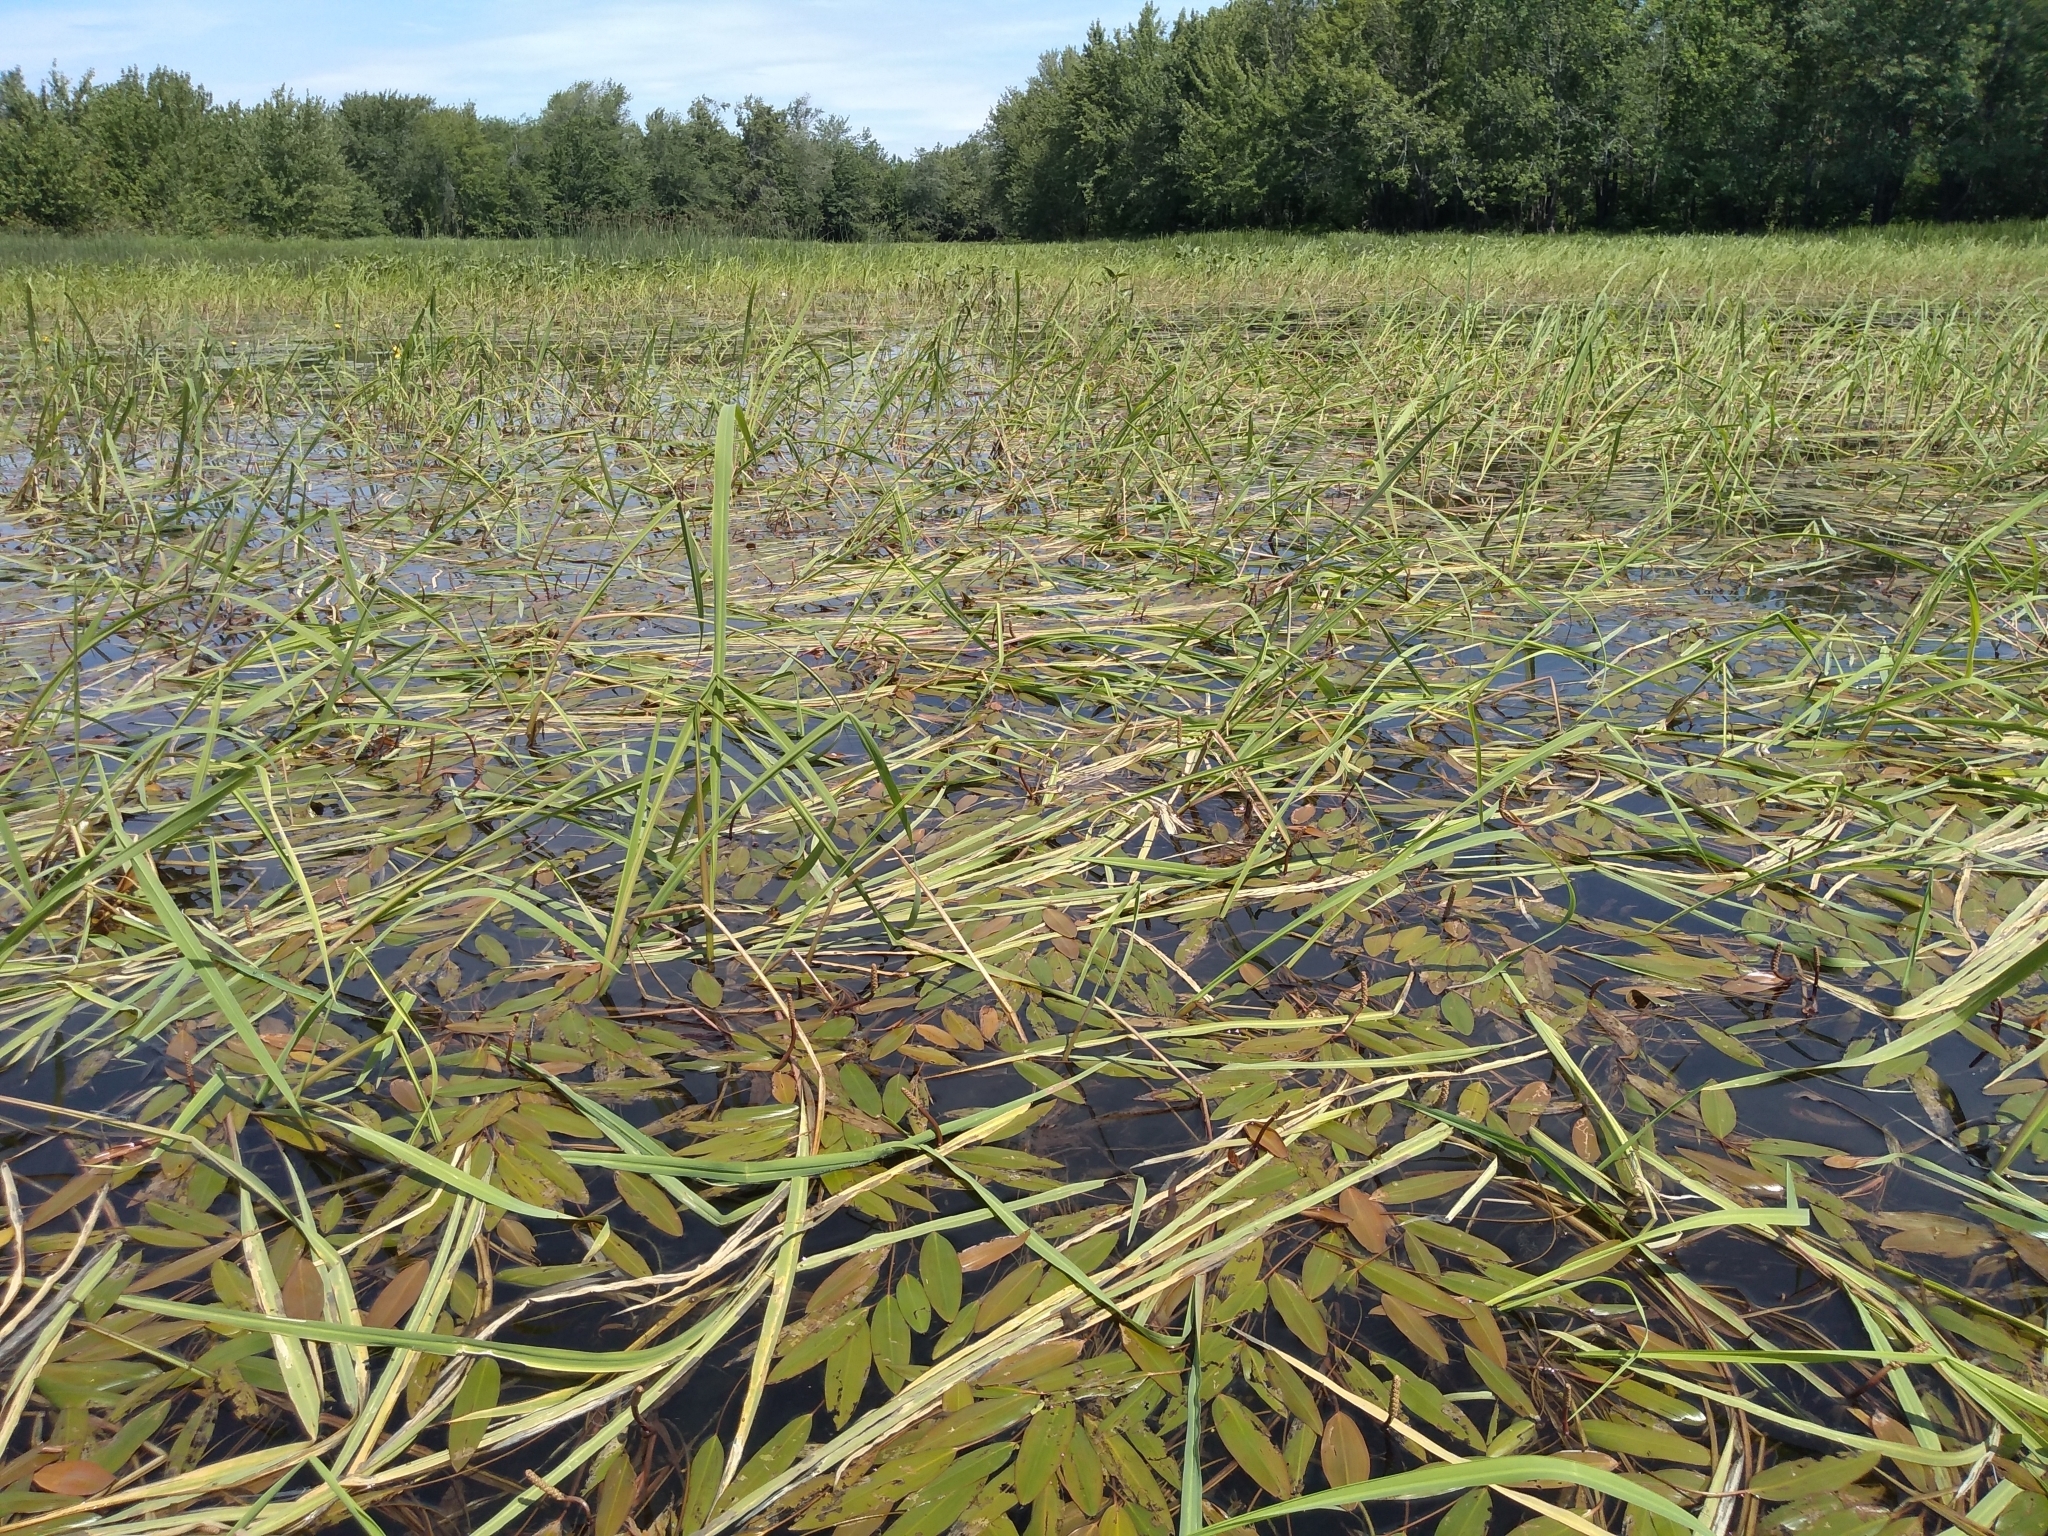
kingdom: Plantae
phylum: Tracheophyta
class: Liliopsida
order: Alismatales
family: Potamogetonaceae
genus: Potamogeton
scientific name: Potamogeton nodosus
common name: Loddon pondweed
